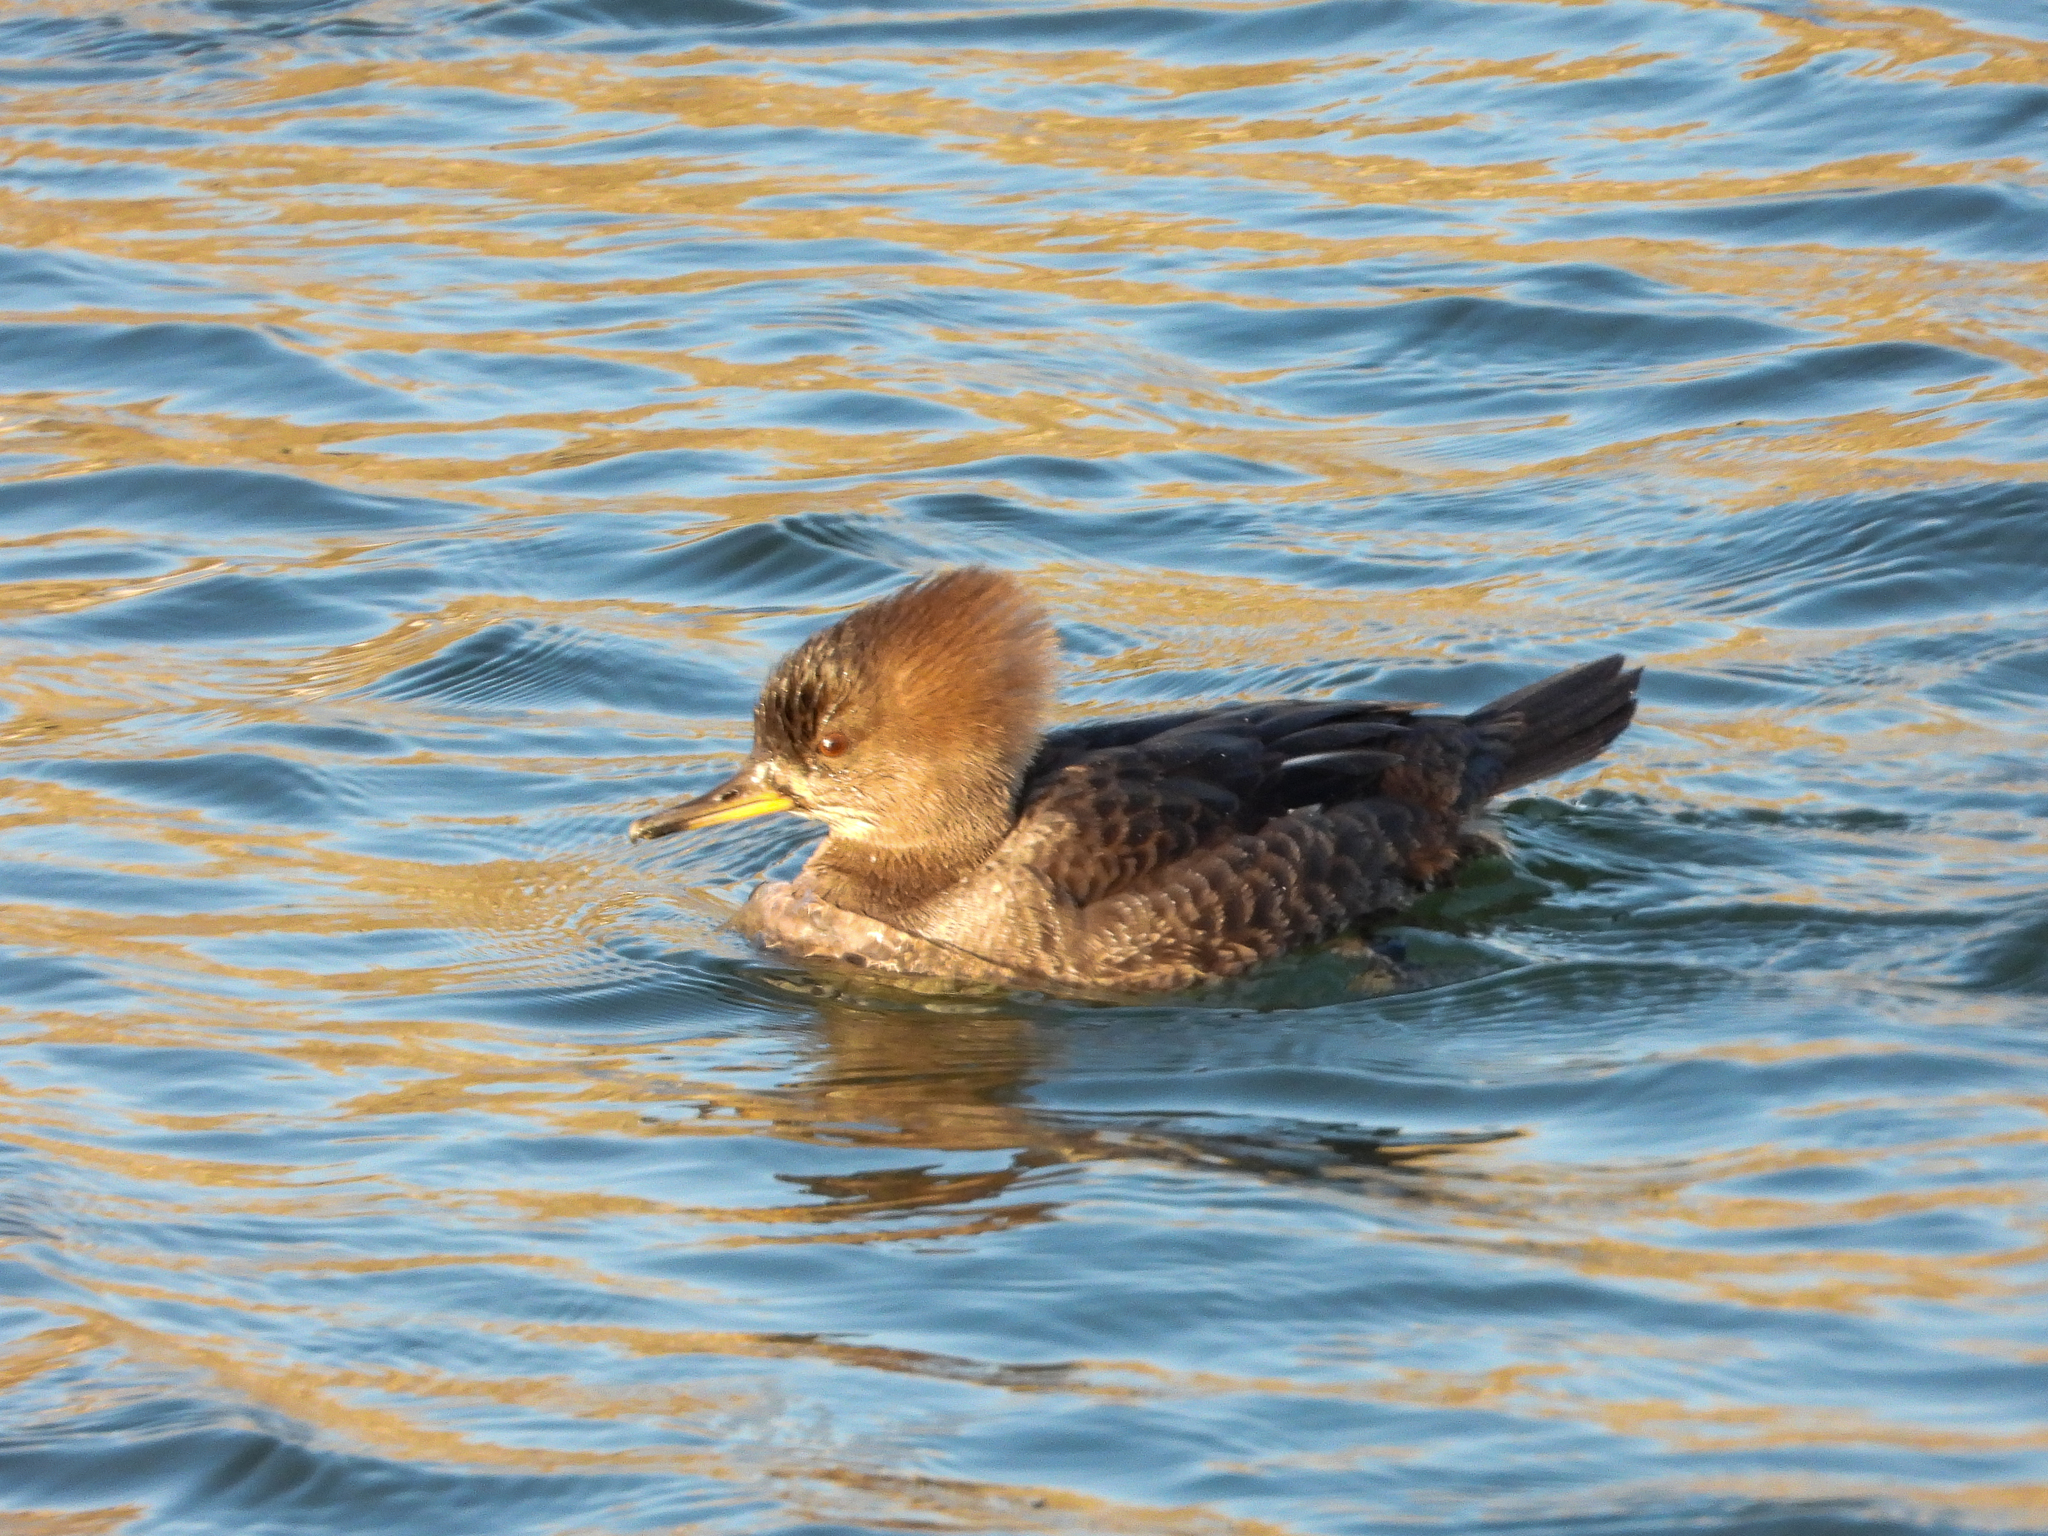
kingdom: Animalia
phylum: Chordata
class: Aves
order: Anseriformes
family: Anatidae
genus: Lophodytes
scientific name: Lophodytes cucullatus
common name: Hooded merganser
